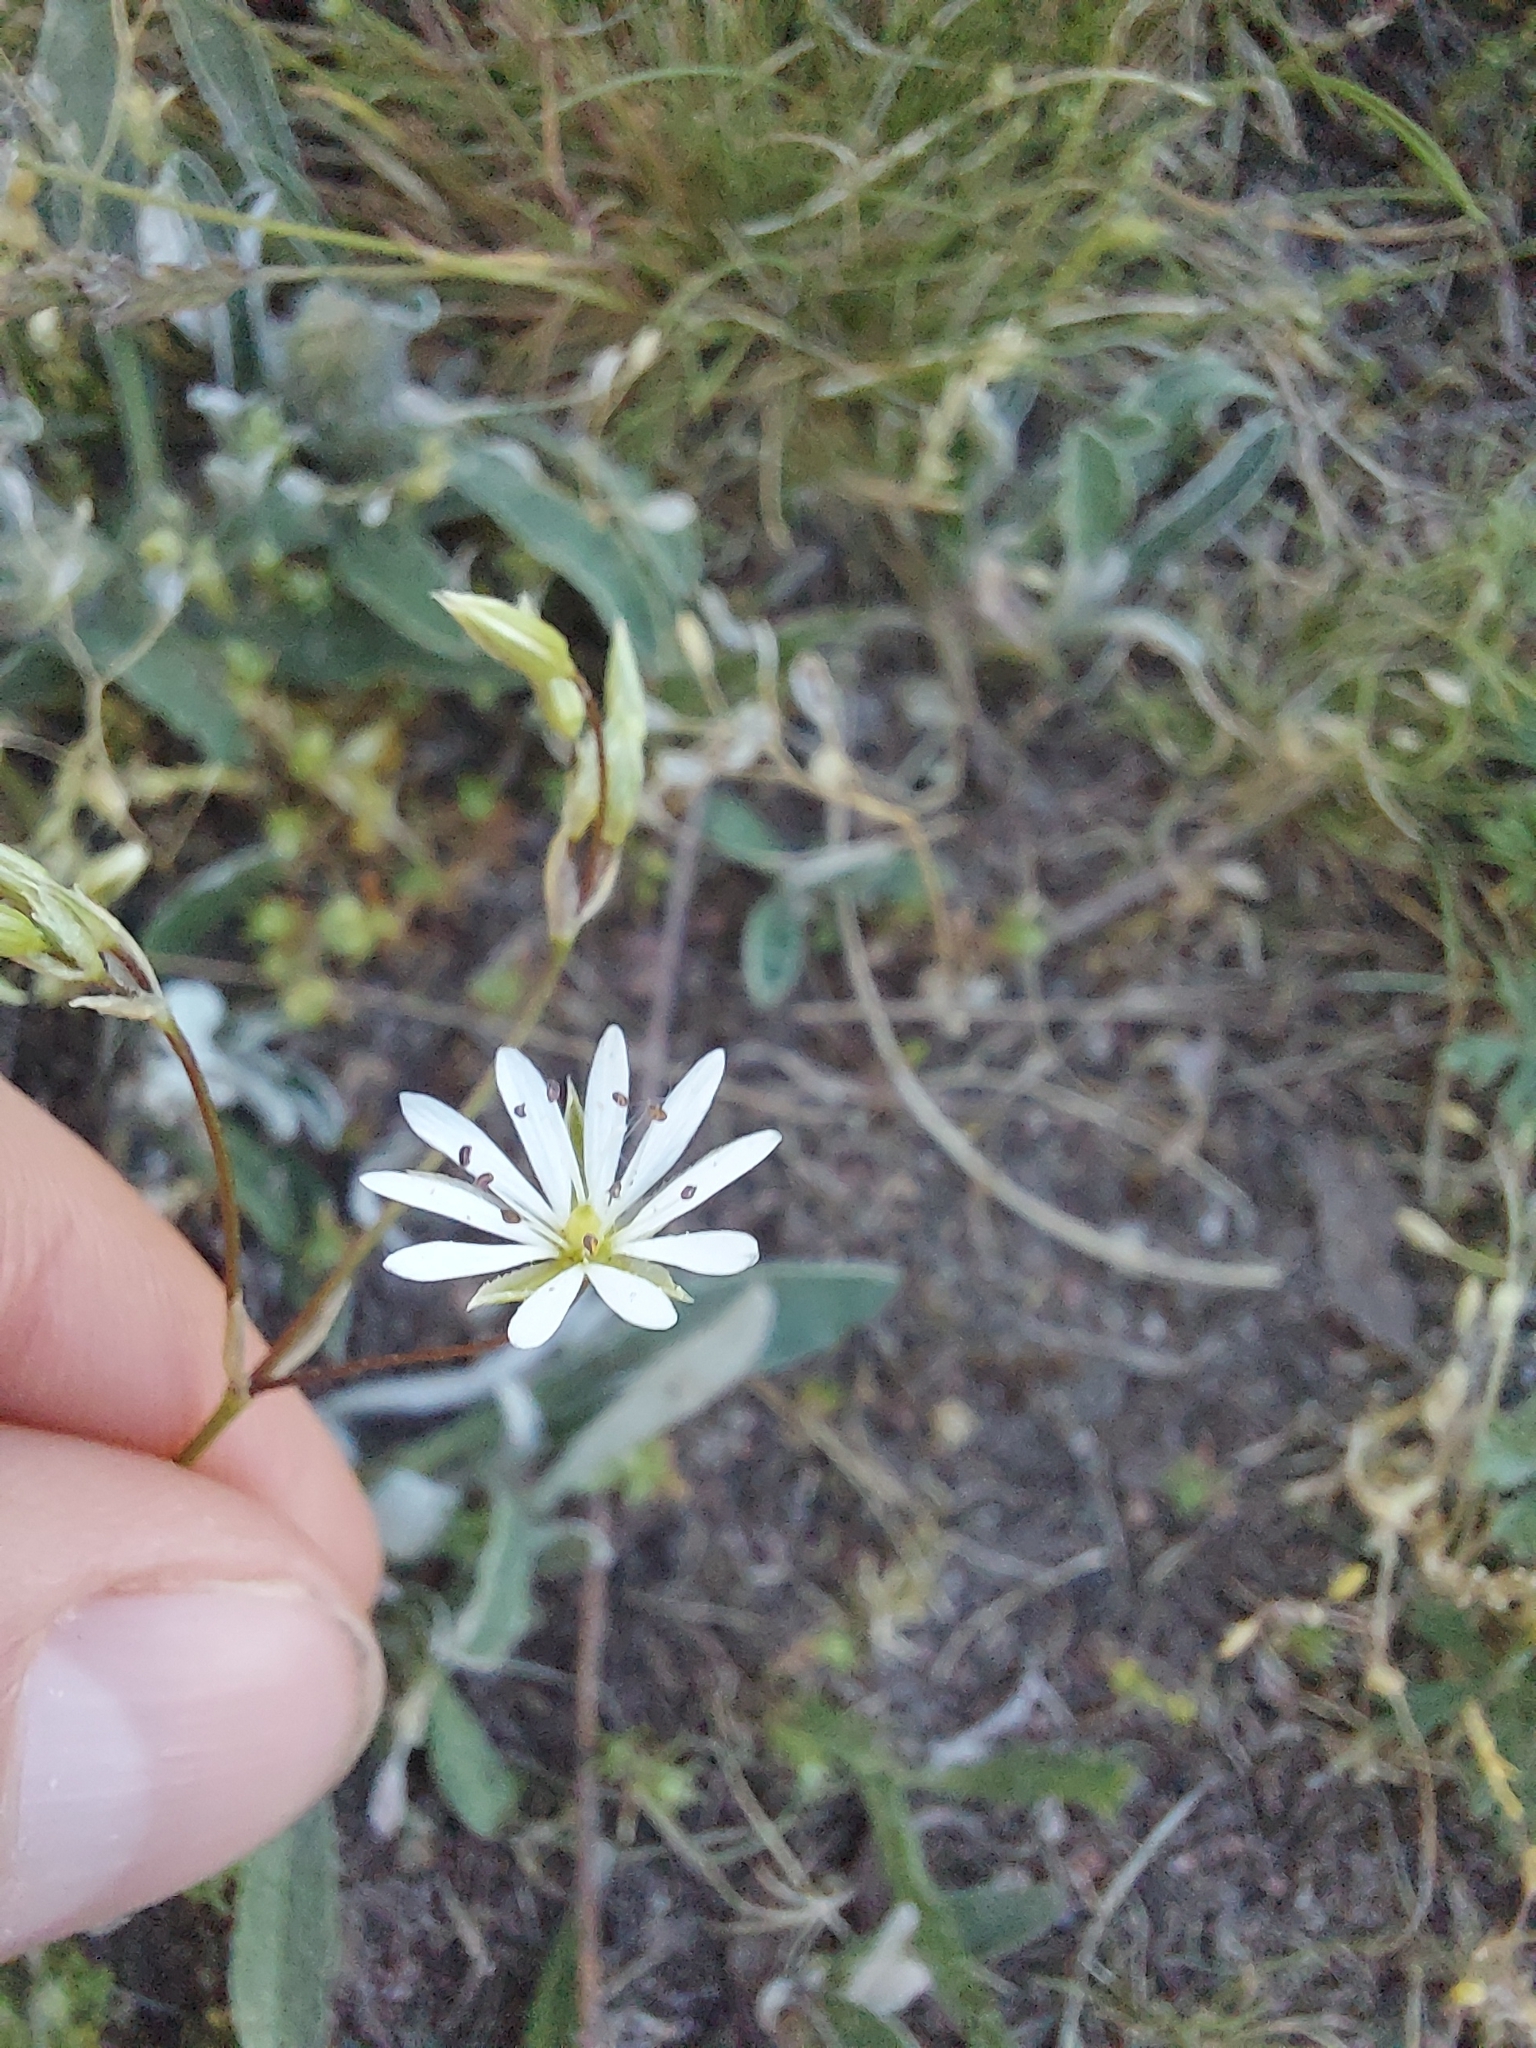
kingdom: Plantae
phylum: Tracheophyta
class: Magnoliopsida
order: Caryophyllales
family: Caryophyllaceae
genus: Stellaria
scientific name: Stellaria graminea
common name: Grass-like starwort
